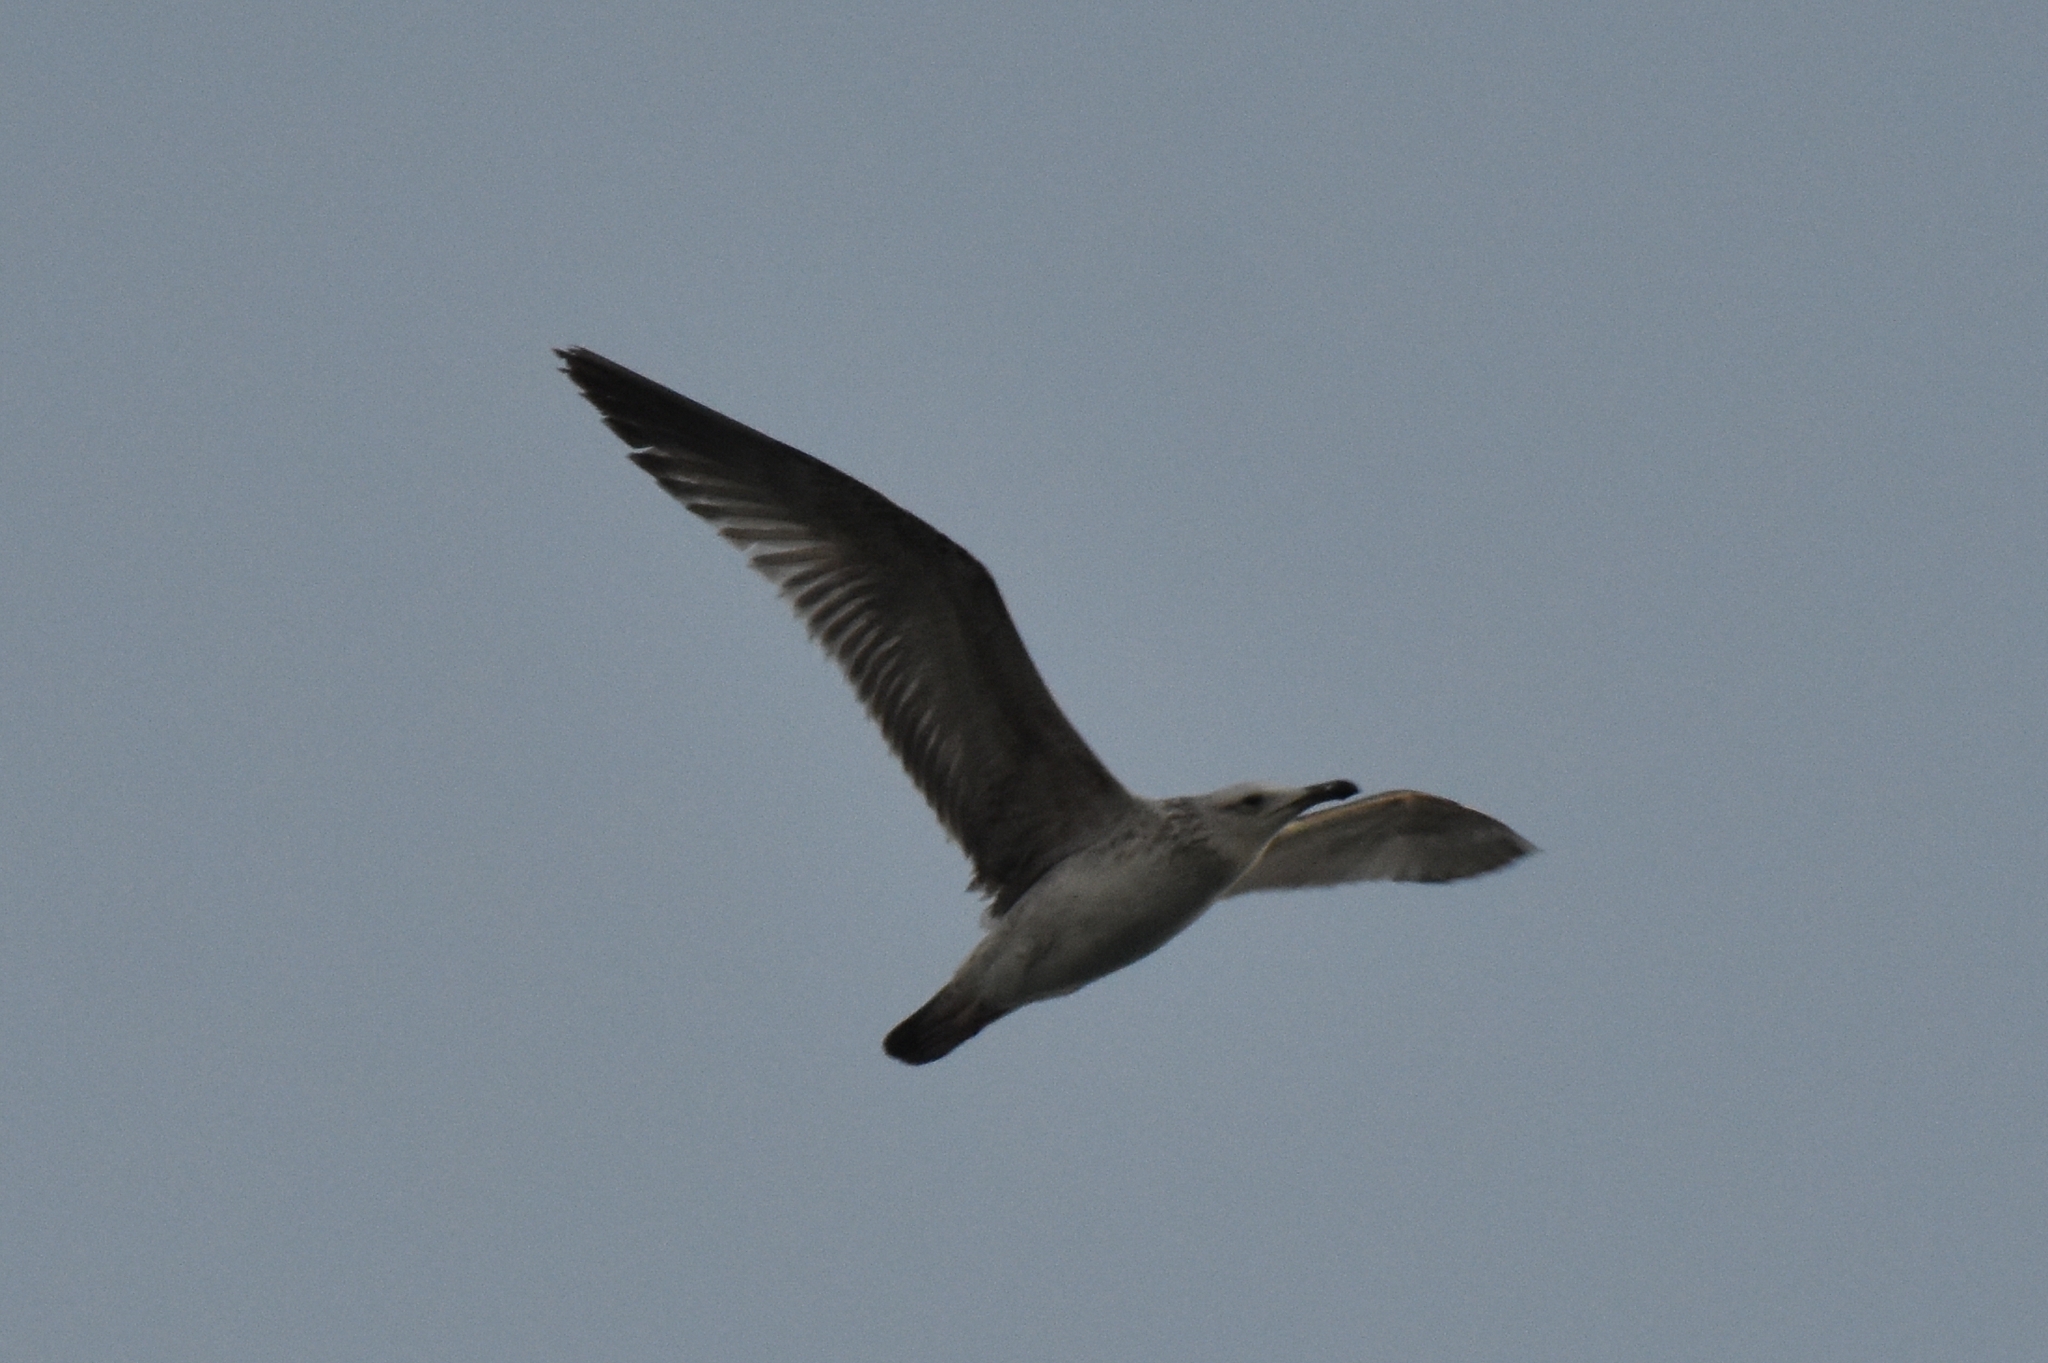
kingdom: Animalia
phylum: Chordata
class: Aves
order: Charadriiformes
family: Laridae
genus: Larus
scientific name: Larus cachinnans
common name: Caspian gull
